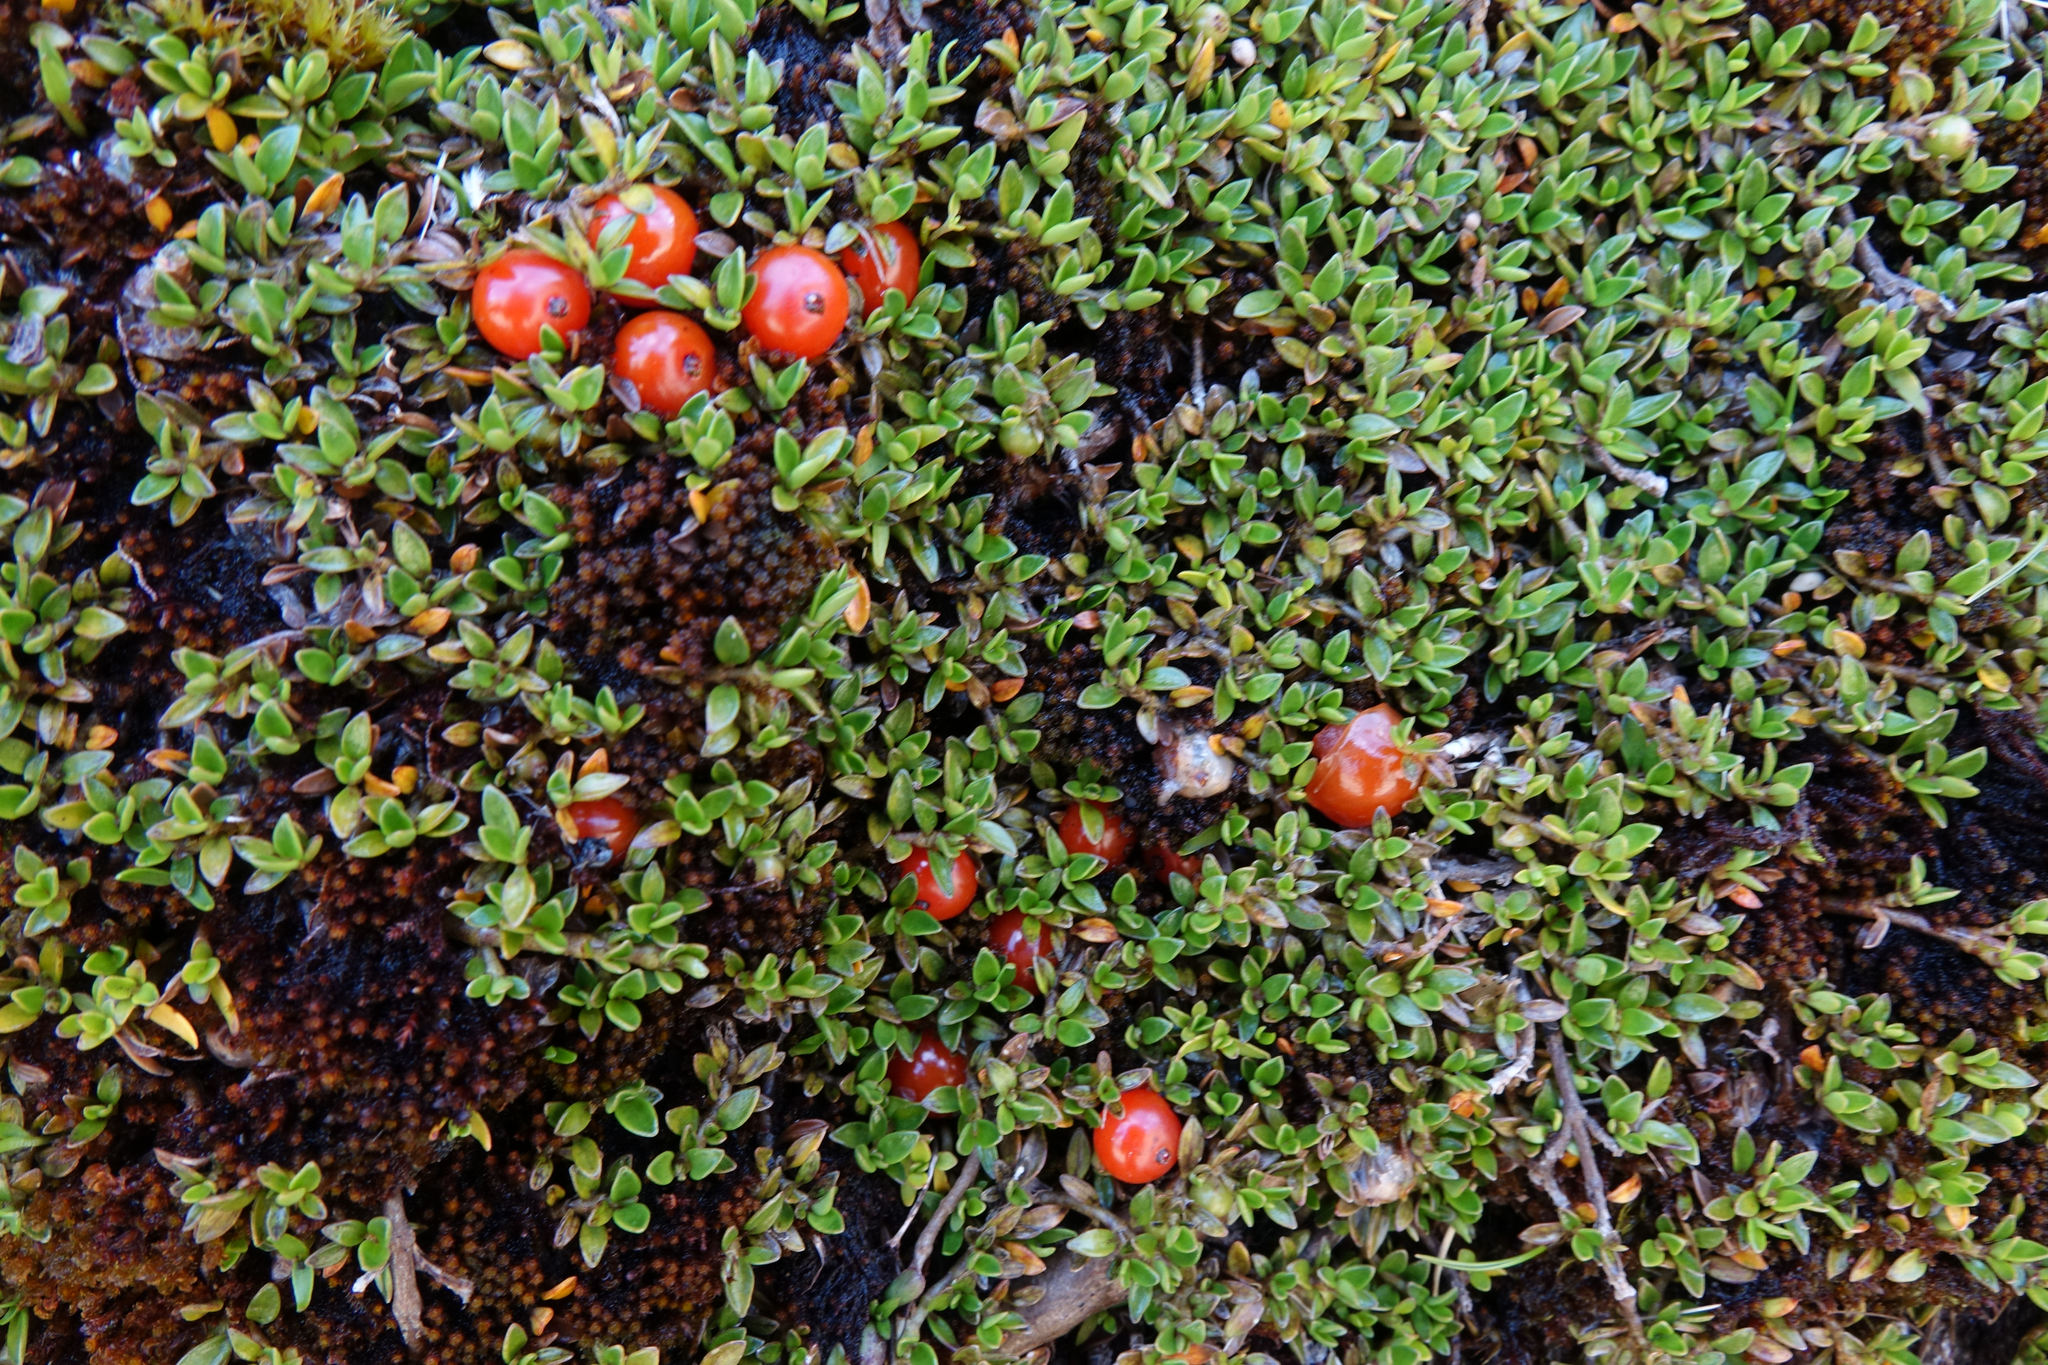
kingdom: Plantae
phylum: Tracheophyta
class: Magnoliopsida
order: Gentianales
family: Rubiaceae
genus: Coprosma
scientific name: Coprosma perpusilla
